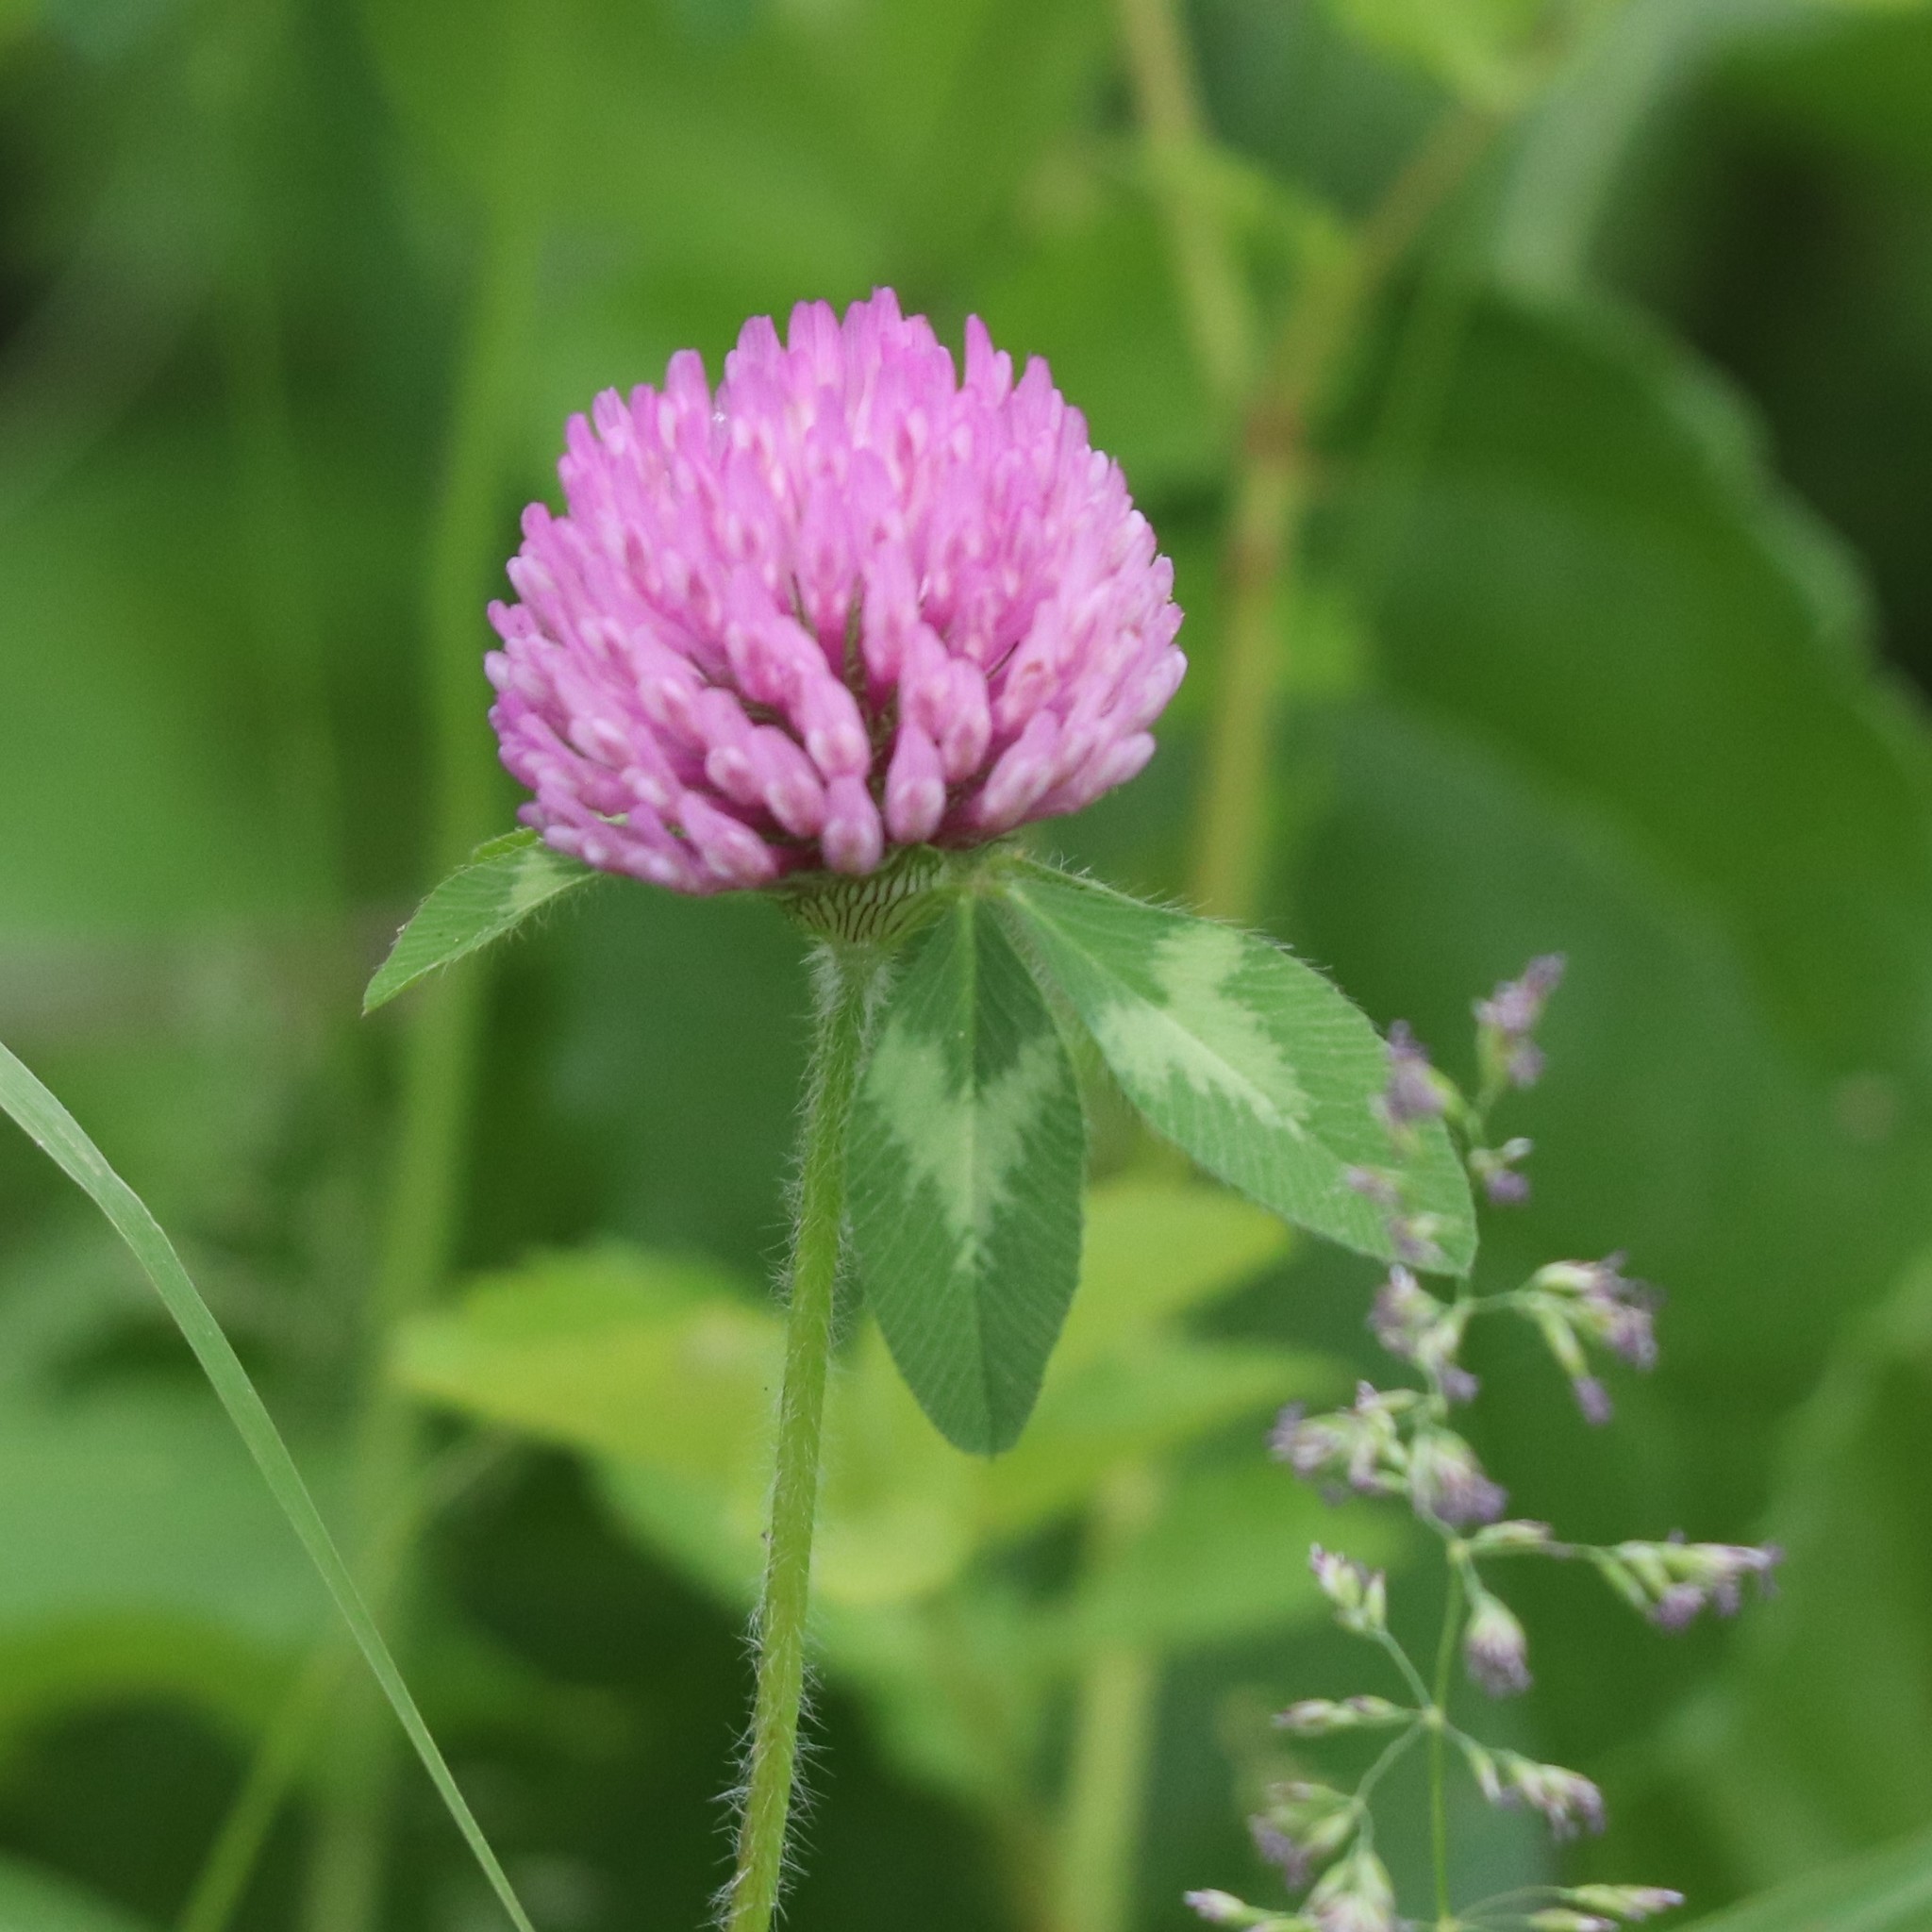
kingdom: Plantae
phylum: Tracheophyta
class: Magnoliopsida
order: Fabales
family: Fabaceae
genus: Trifolium
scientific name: Trifolium pratense
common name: Red clover
